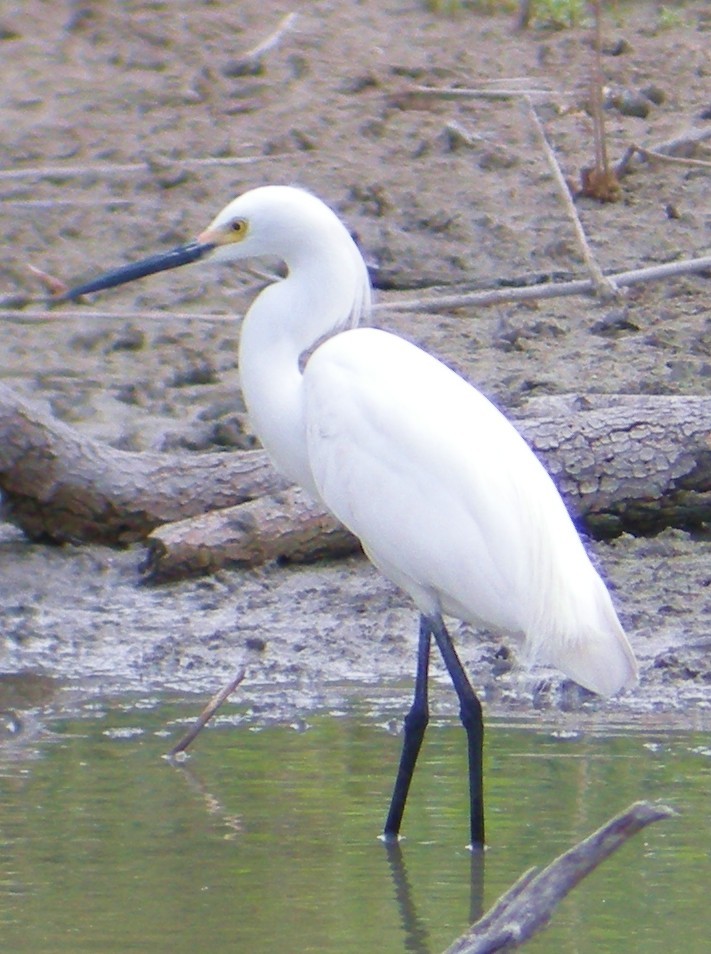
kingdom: Animalia
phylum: Chordata
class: Aves
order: Pelecaniformes
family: Ardeidae
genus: Egretta
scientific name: Egretta thula
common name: Snowy egret
